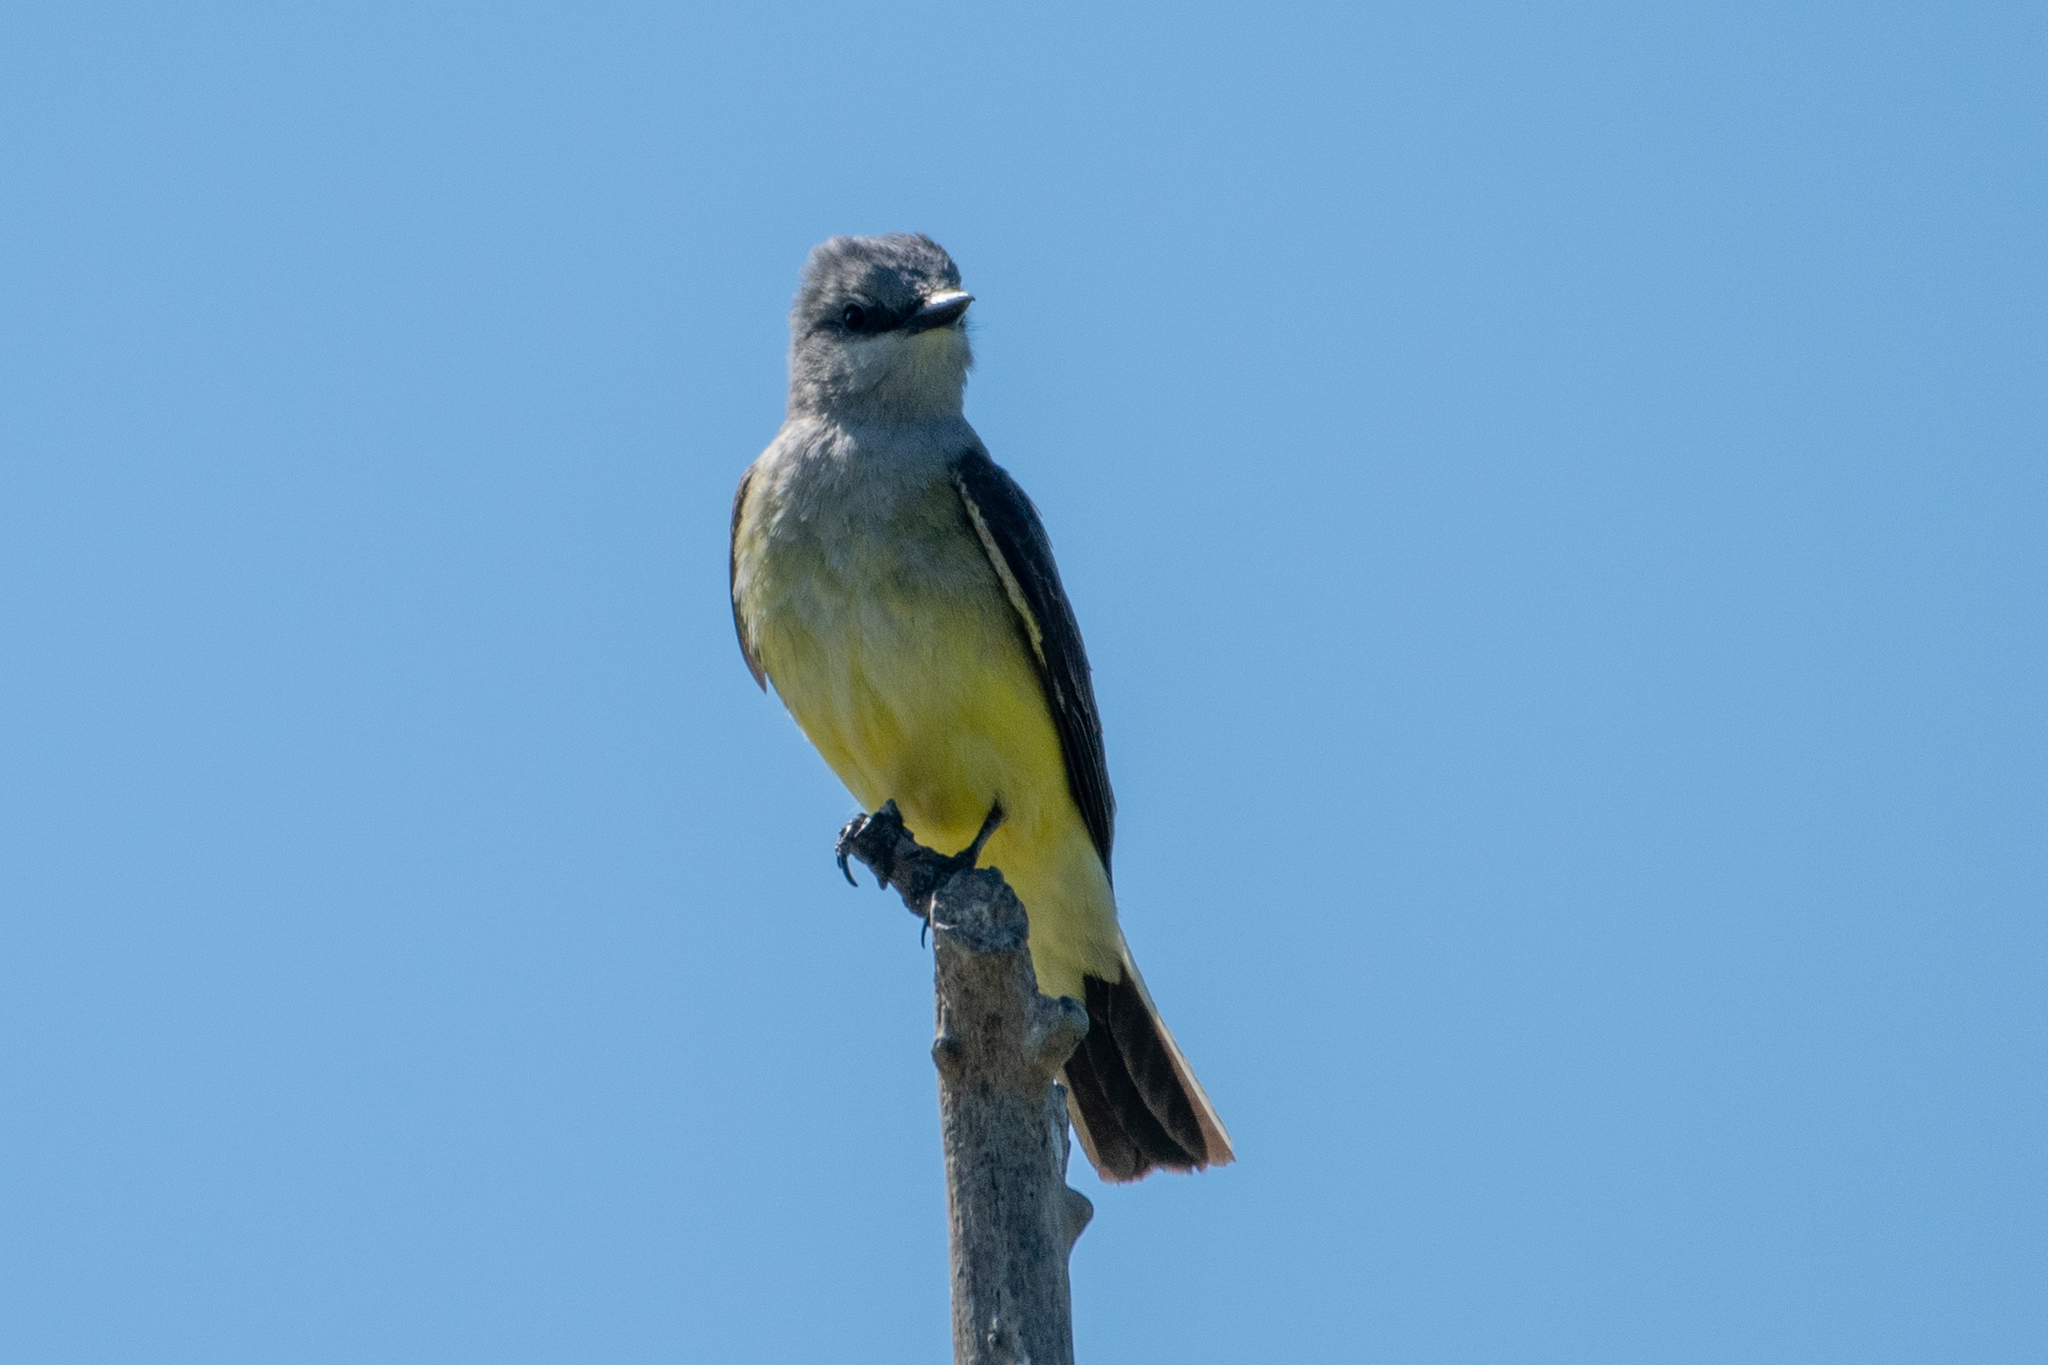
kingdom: Animalia
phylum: Chordata
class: Aves
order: Passeriformes
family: Tyrannidae
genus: Tyrannus
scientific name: Tyrannus verticalis
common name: Western kingbird
